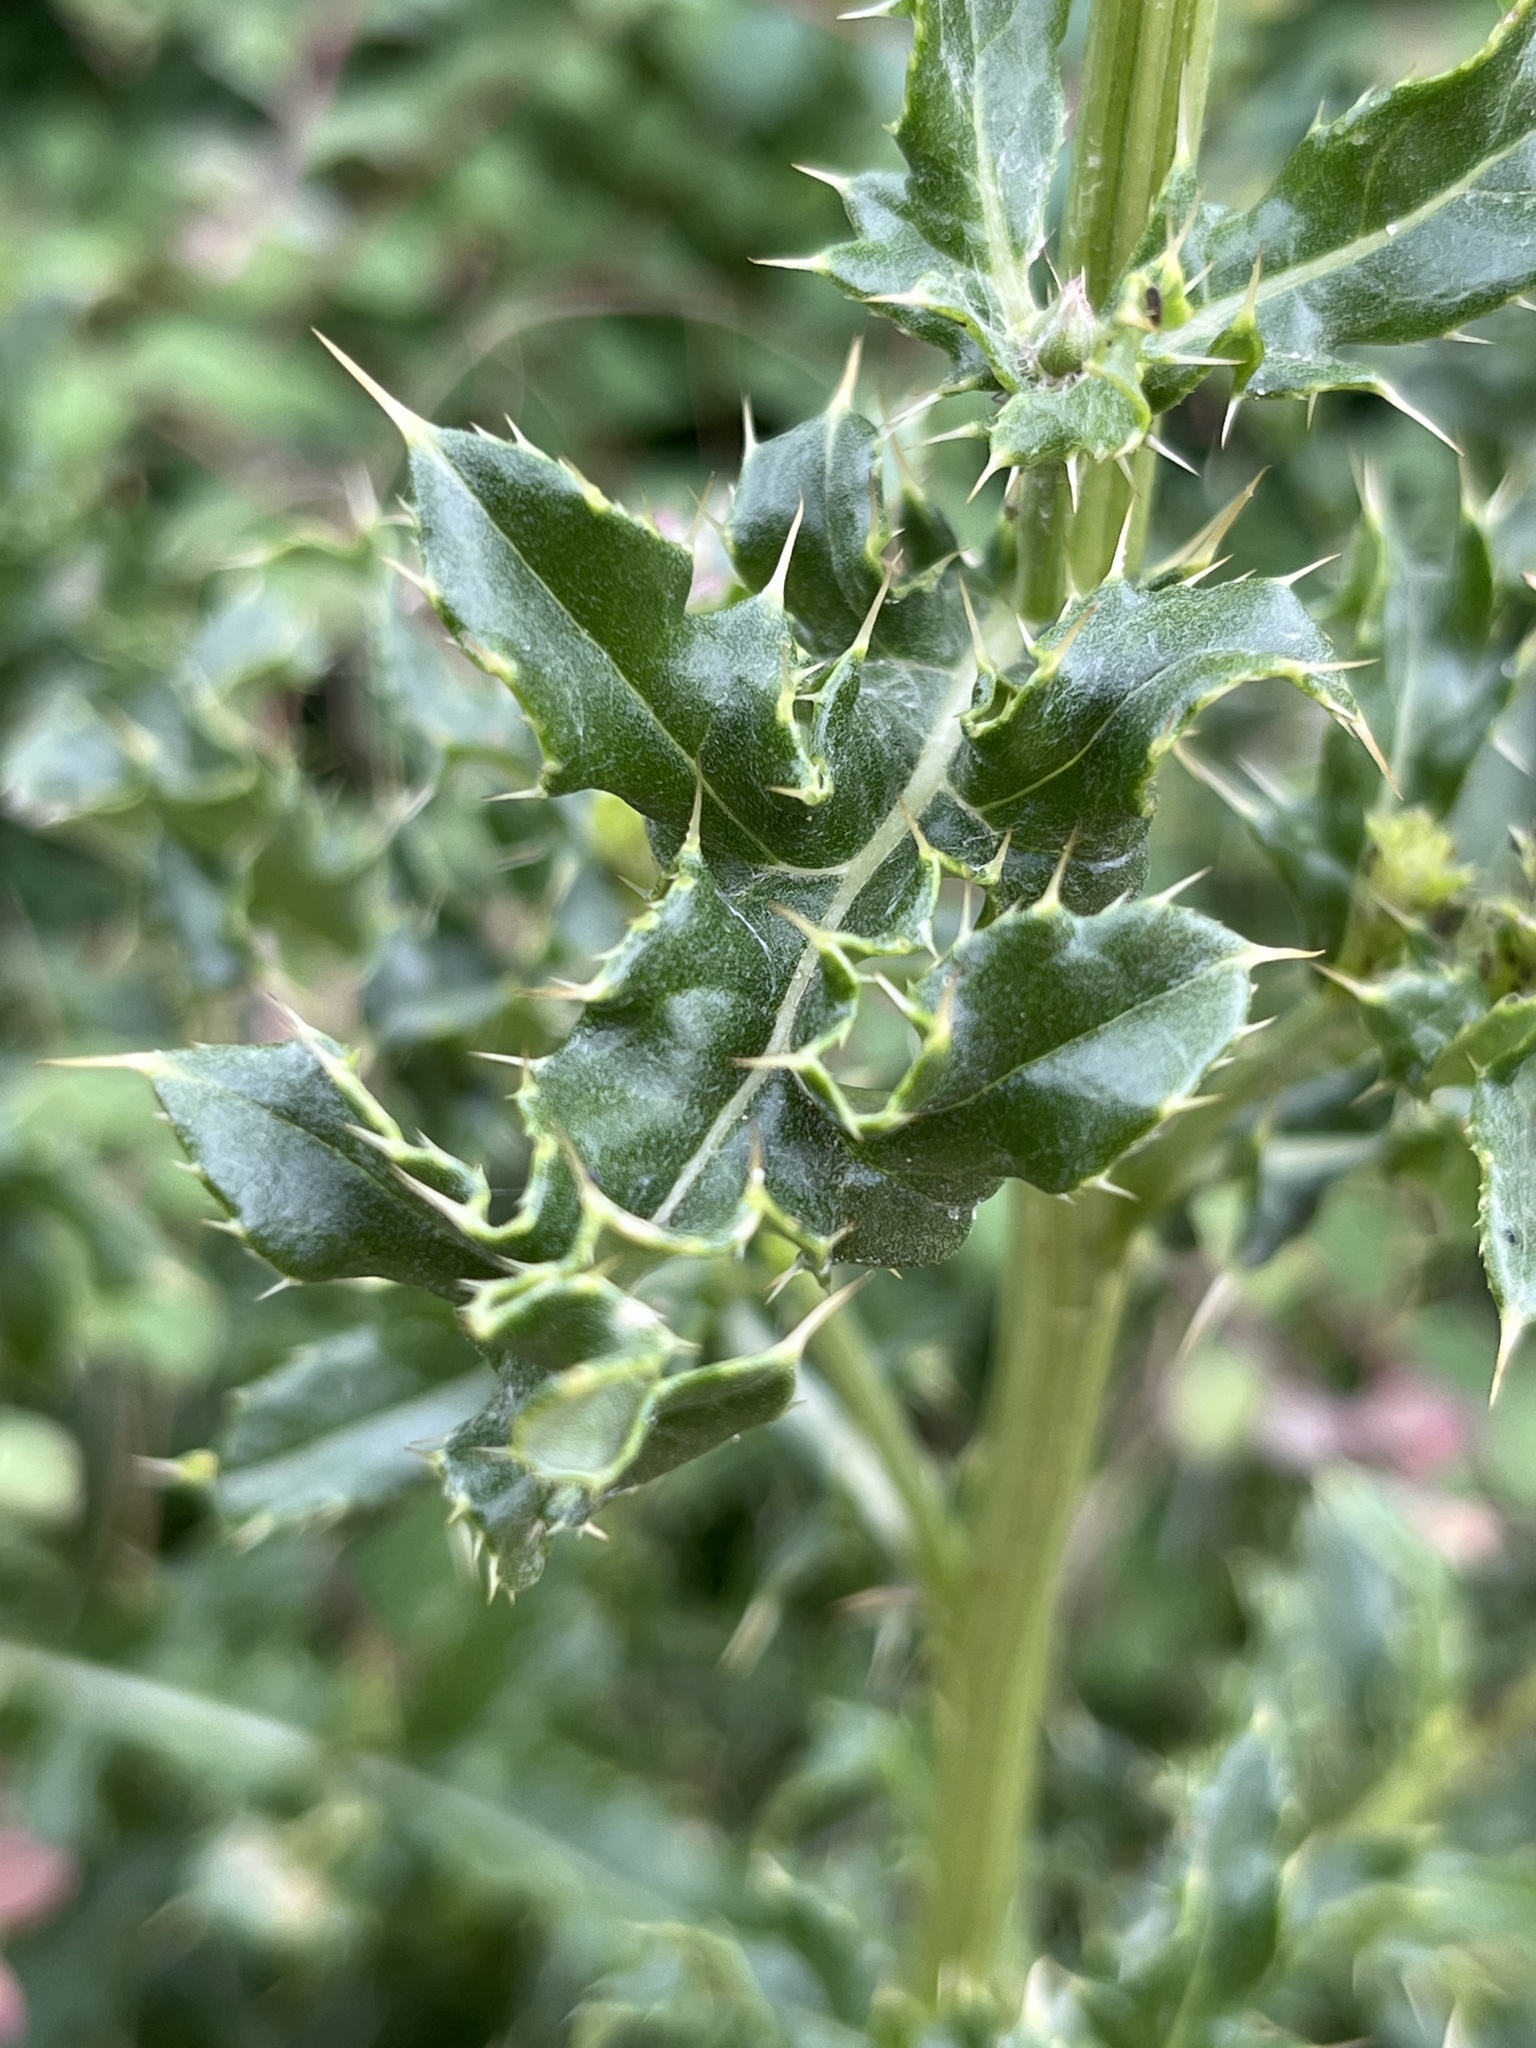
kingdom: Plantae
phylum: Tracheophyta
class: Magnoliopsida
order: Asterales
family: Asteraceae
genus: Cirsium
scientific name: Cirsium arvense
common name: Creeping thistle
